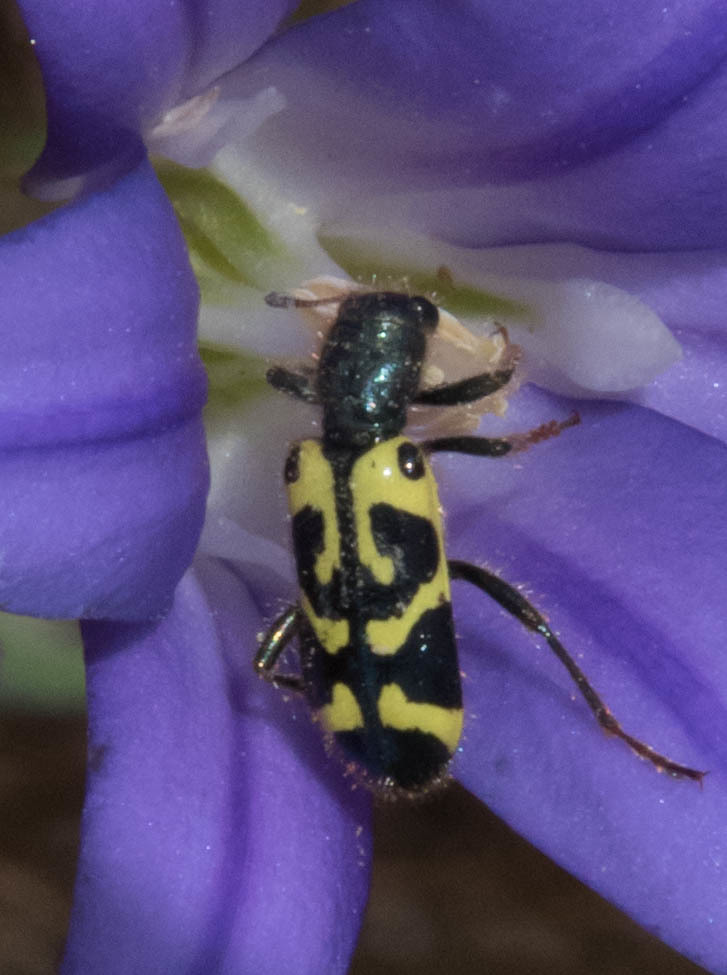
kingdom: Animalia
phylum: Arthropoda
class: Insecta
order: Coleoptera
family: Cleridae
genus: Trichodes
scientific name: Trichodes ornatus
